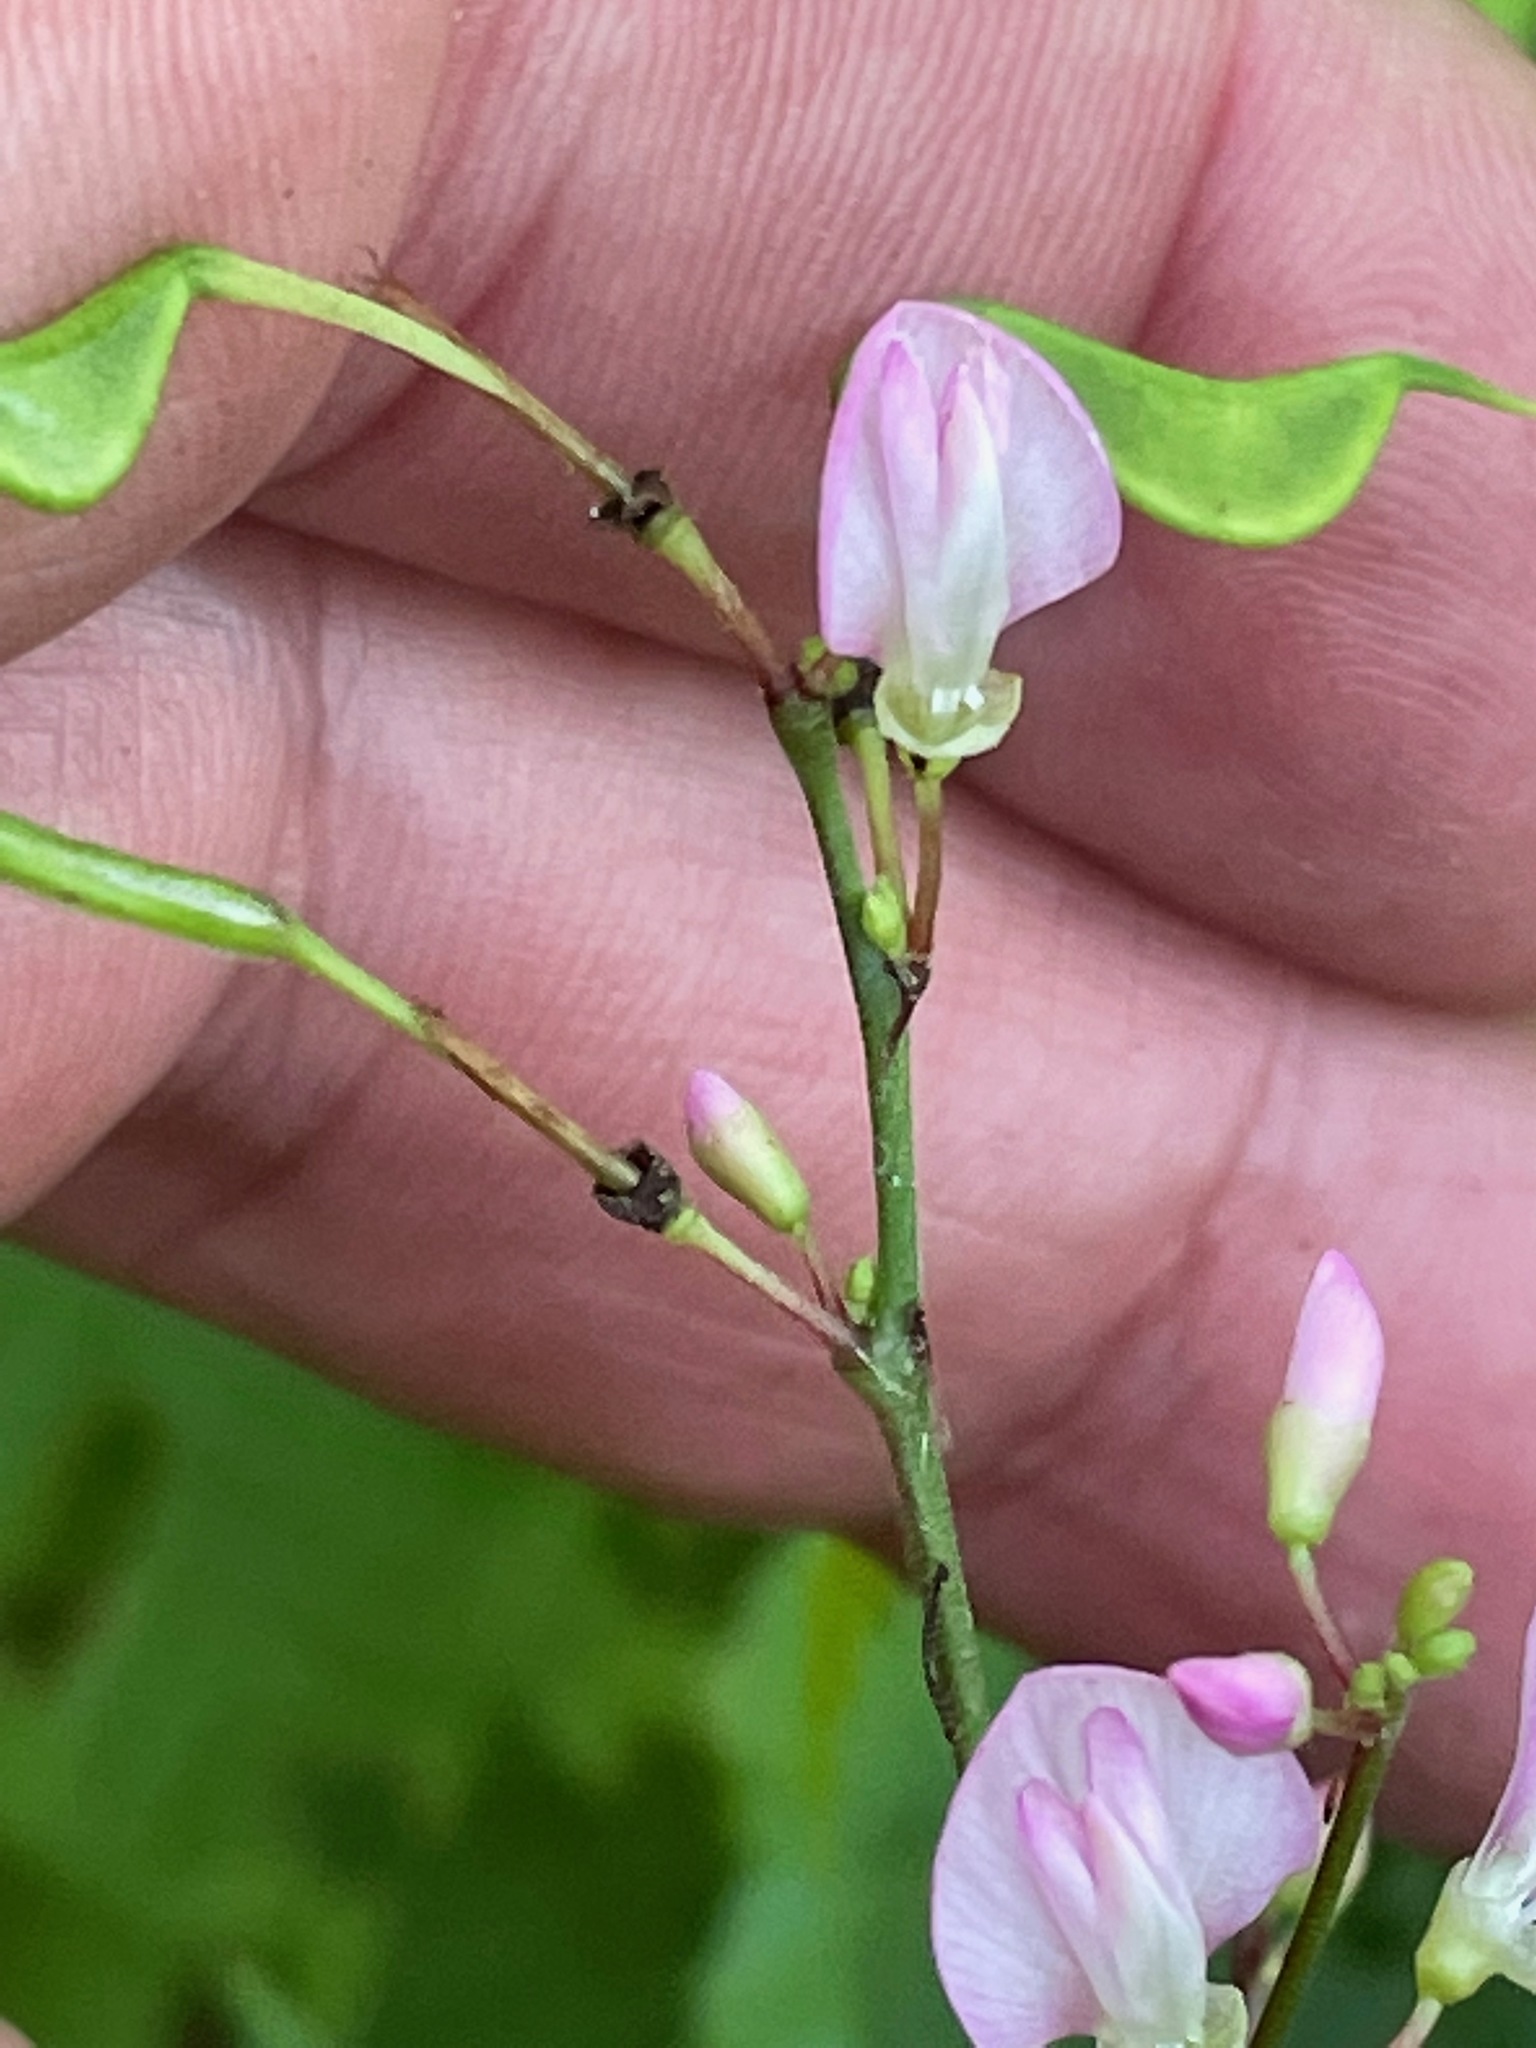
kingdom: Plantae
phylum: Tracheophyta
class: Magnoliopsida
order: Fabales
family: Fabaceae
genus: Hylodesmum
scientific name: Hylodesmum glutinosum
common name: Clustered-leaved tick-trefoil
